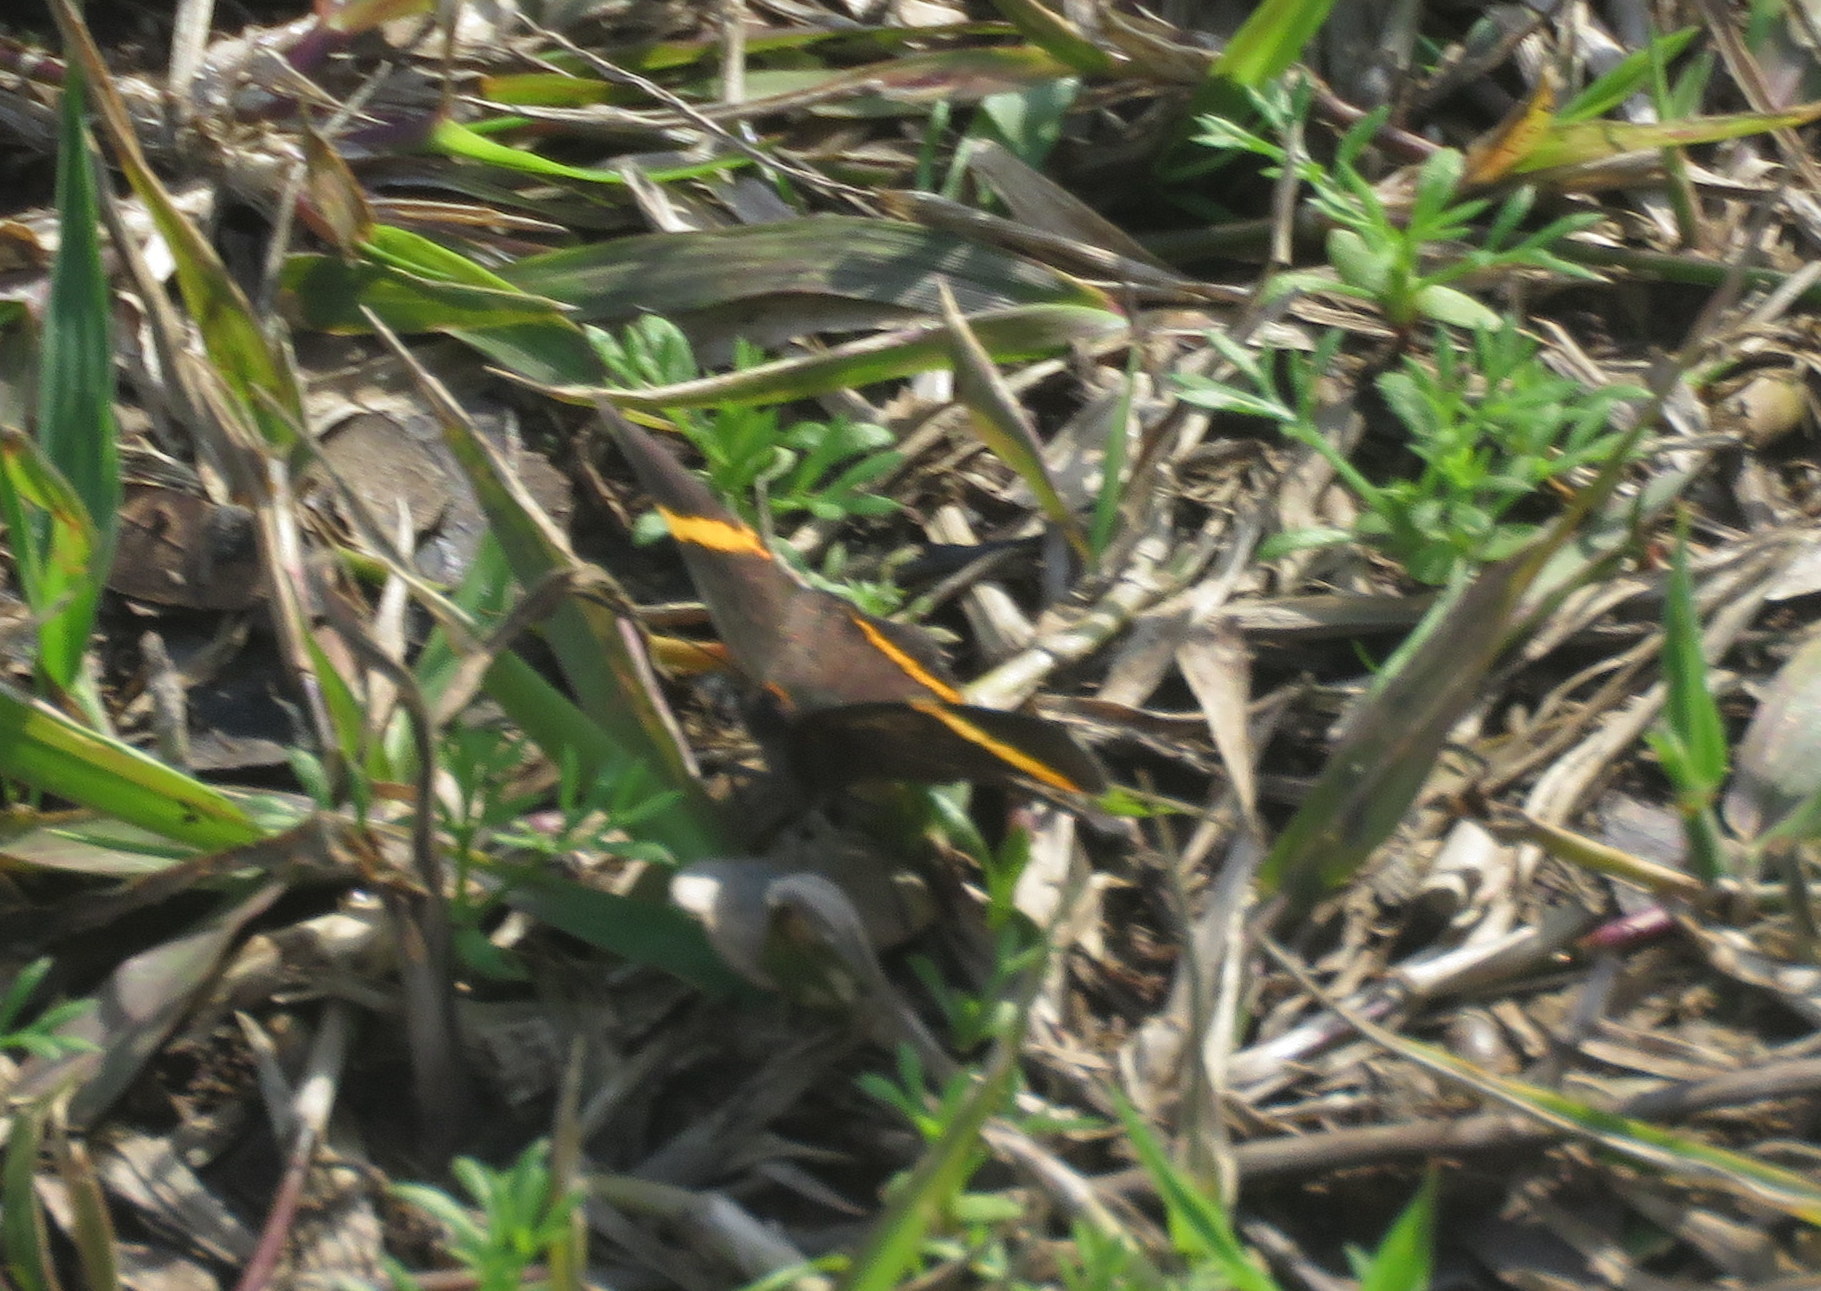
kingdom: Animalia
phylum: Arthropoda
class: Insecta
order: Lepidoptera
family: Riodinidae
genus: Riodina
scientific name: Riodina lysippoides
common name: Little dancer metalmark
